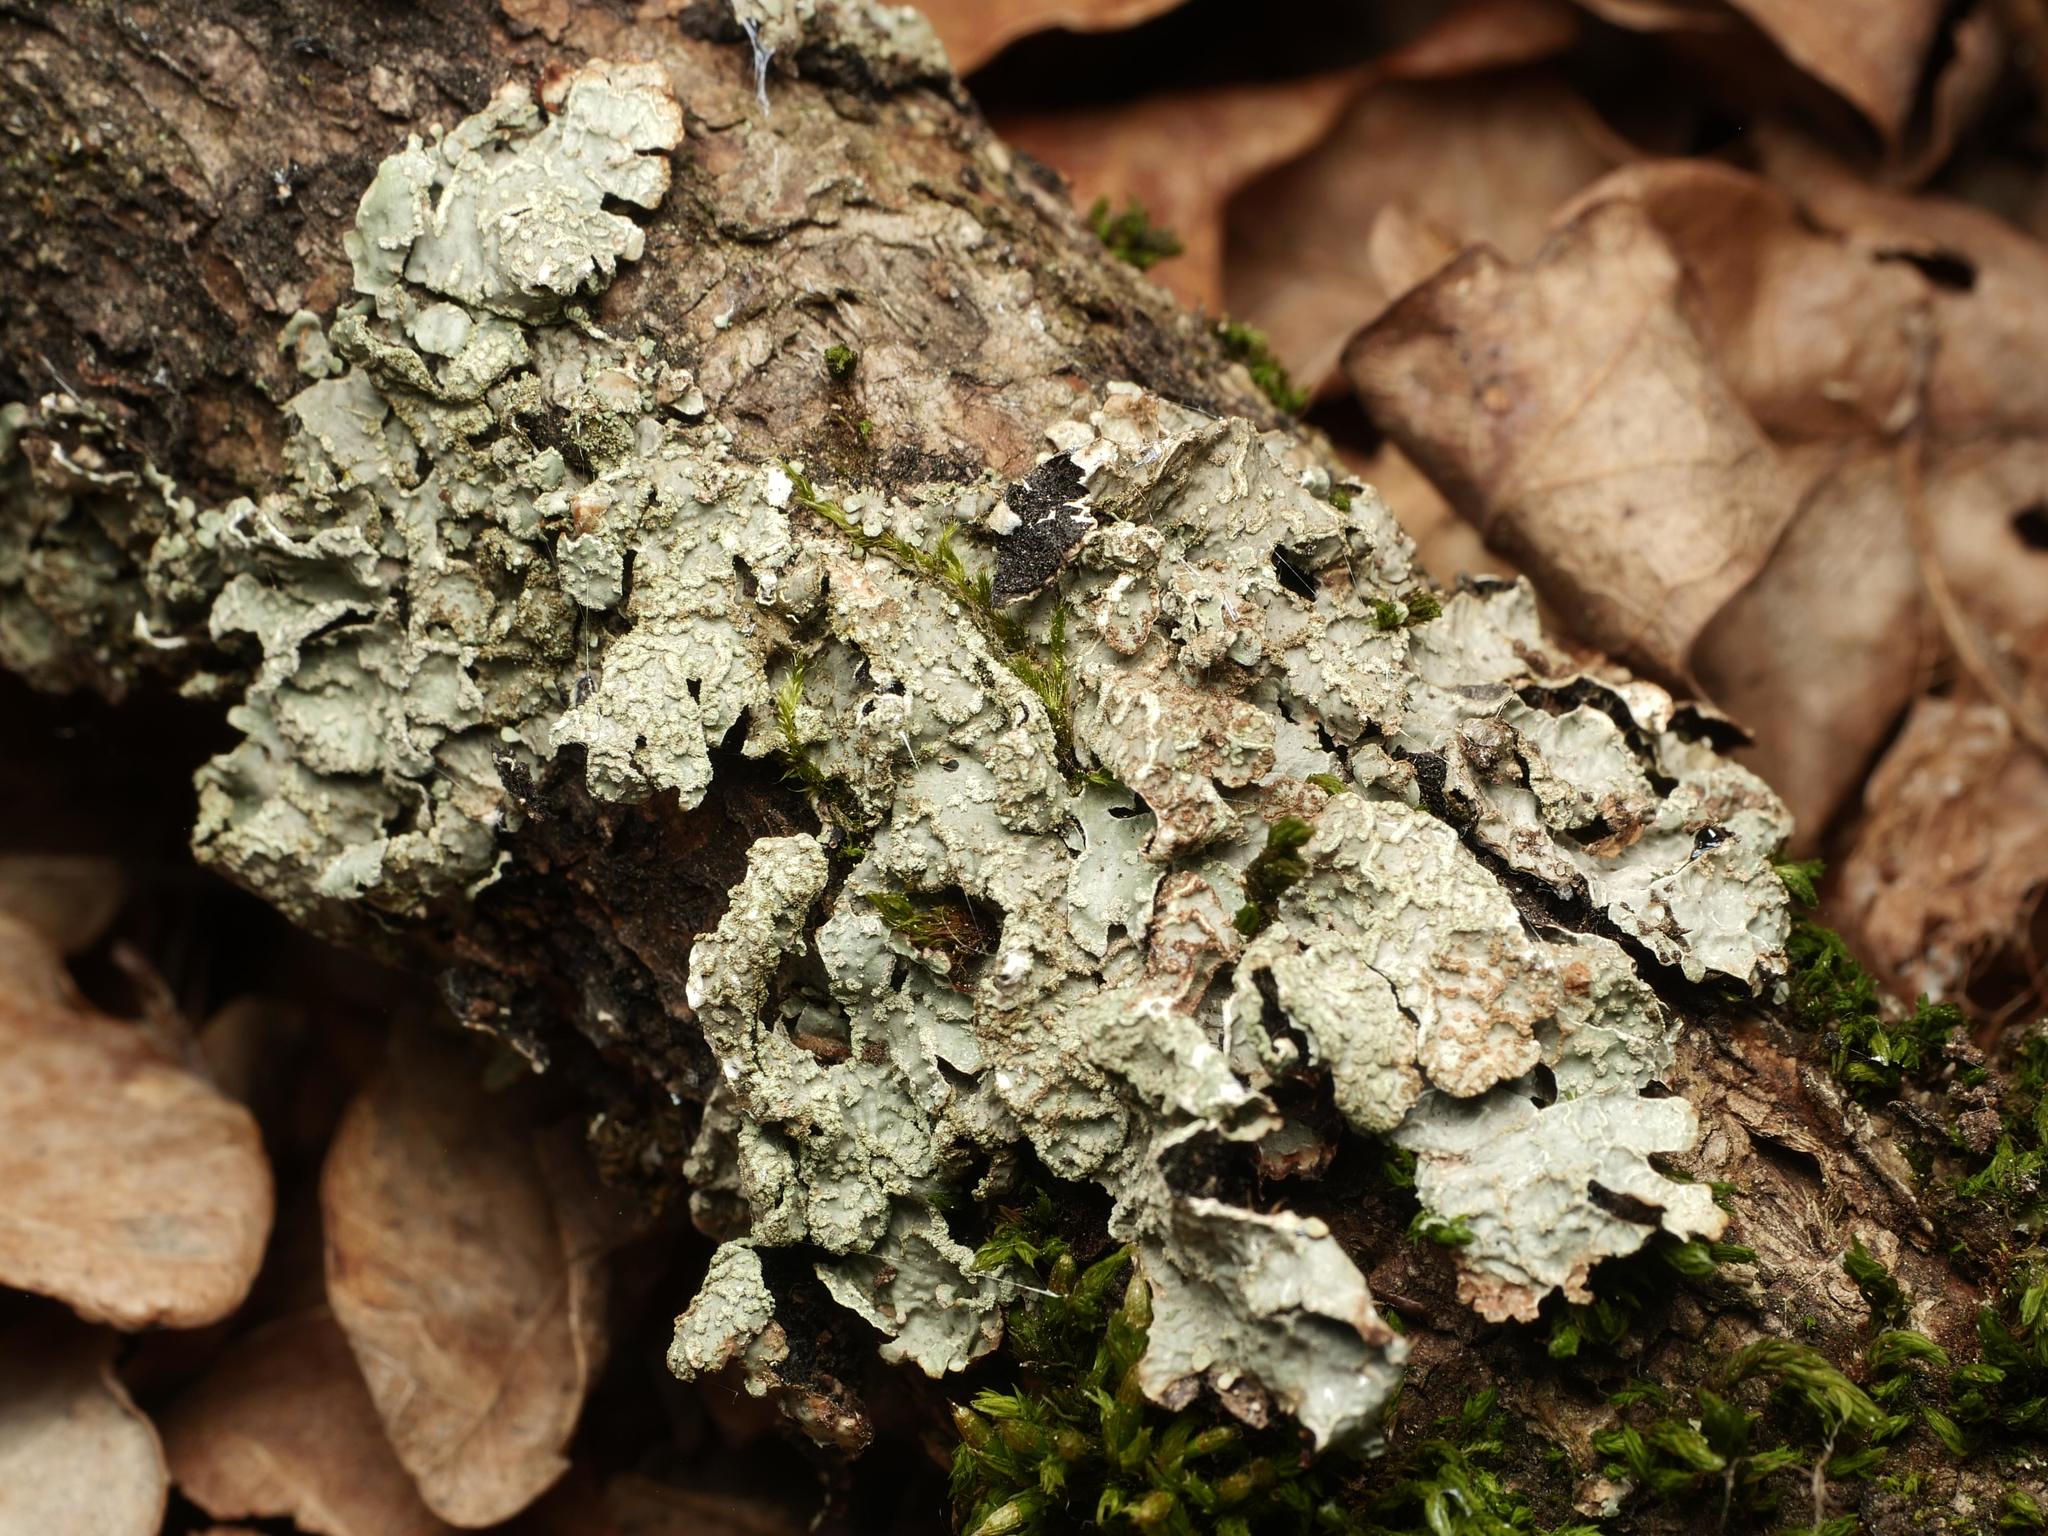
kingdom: Fungi
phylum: Ascomycota
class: Lecanoromycetes
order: Lecanorales
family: Parmeliaceae
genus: Parmelia
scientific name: Parmelia sulcata
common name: Netted shield lichen
